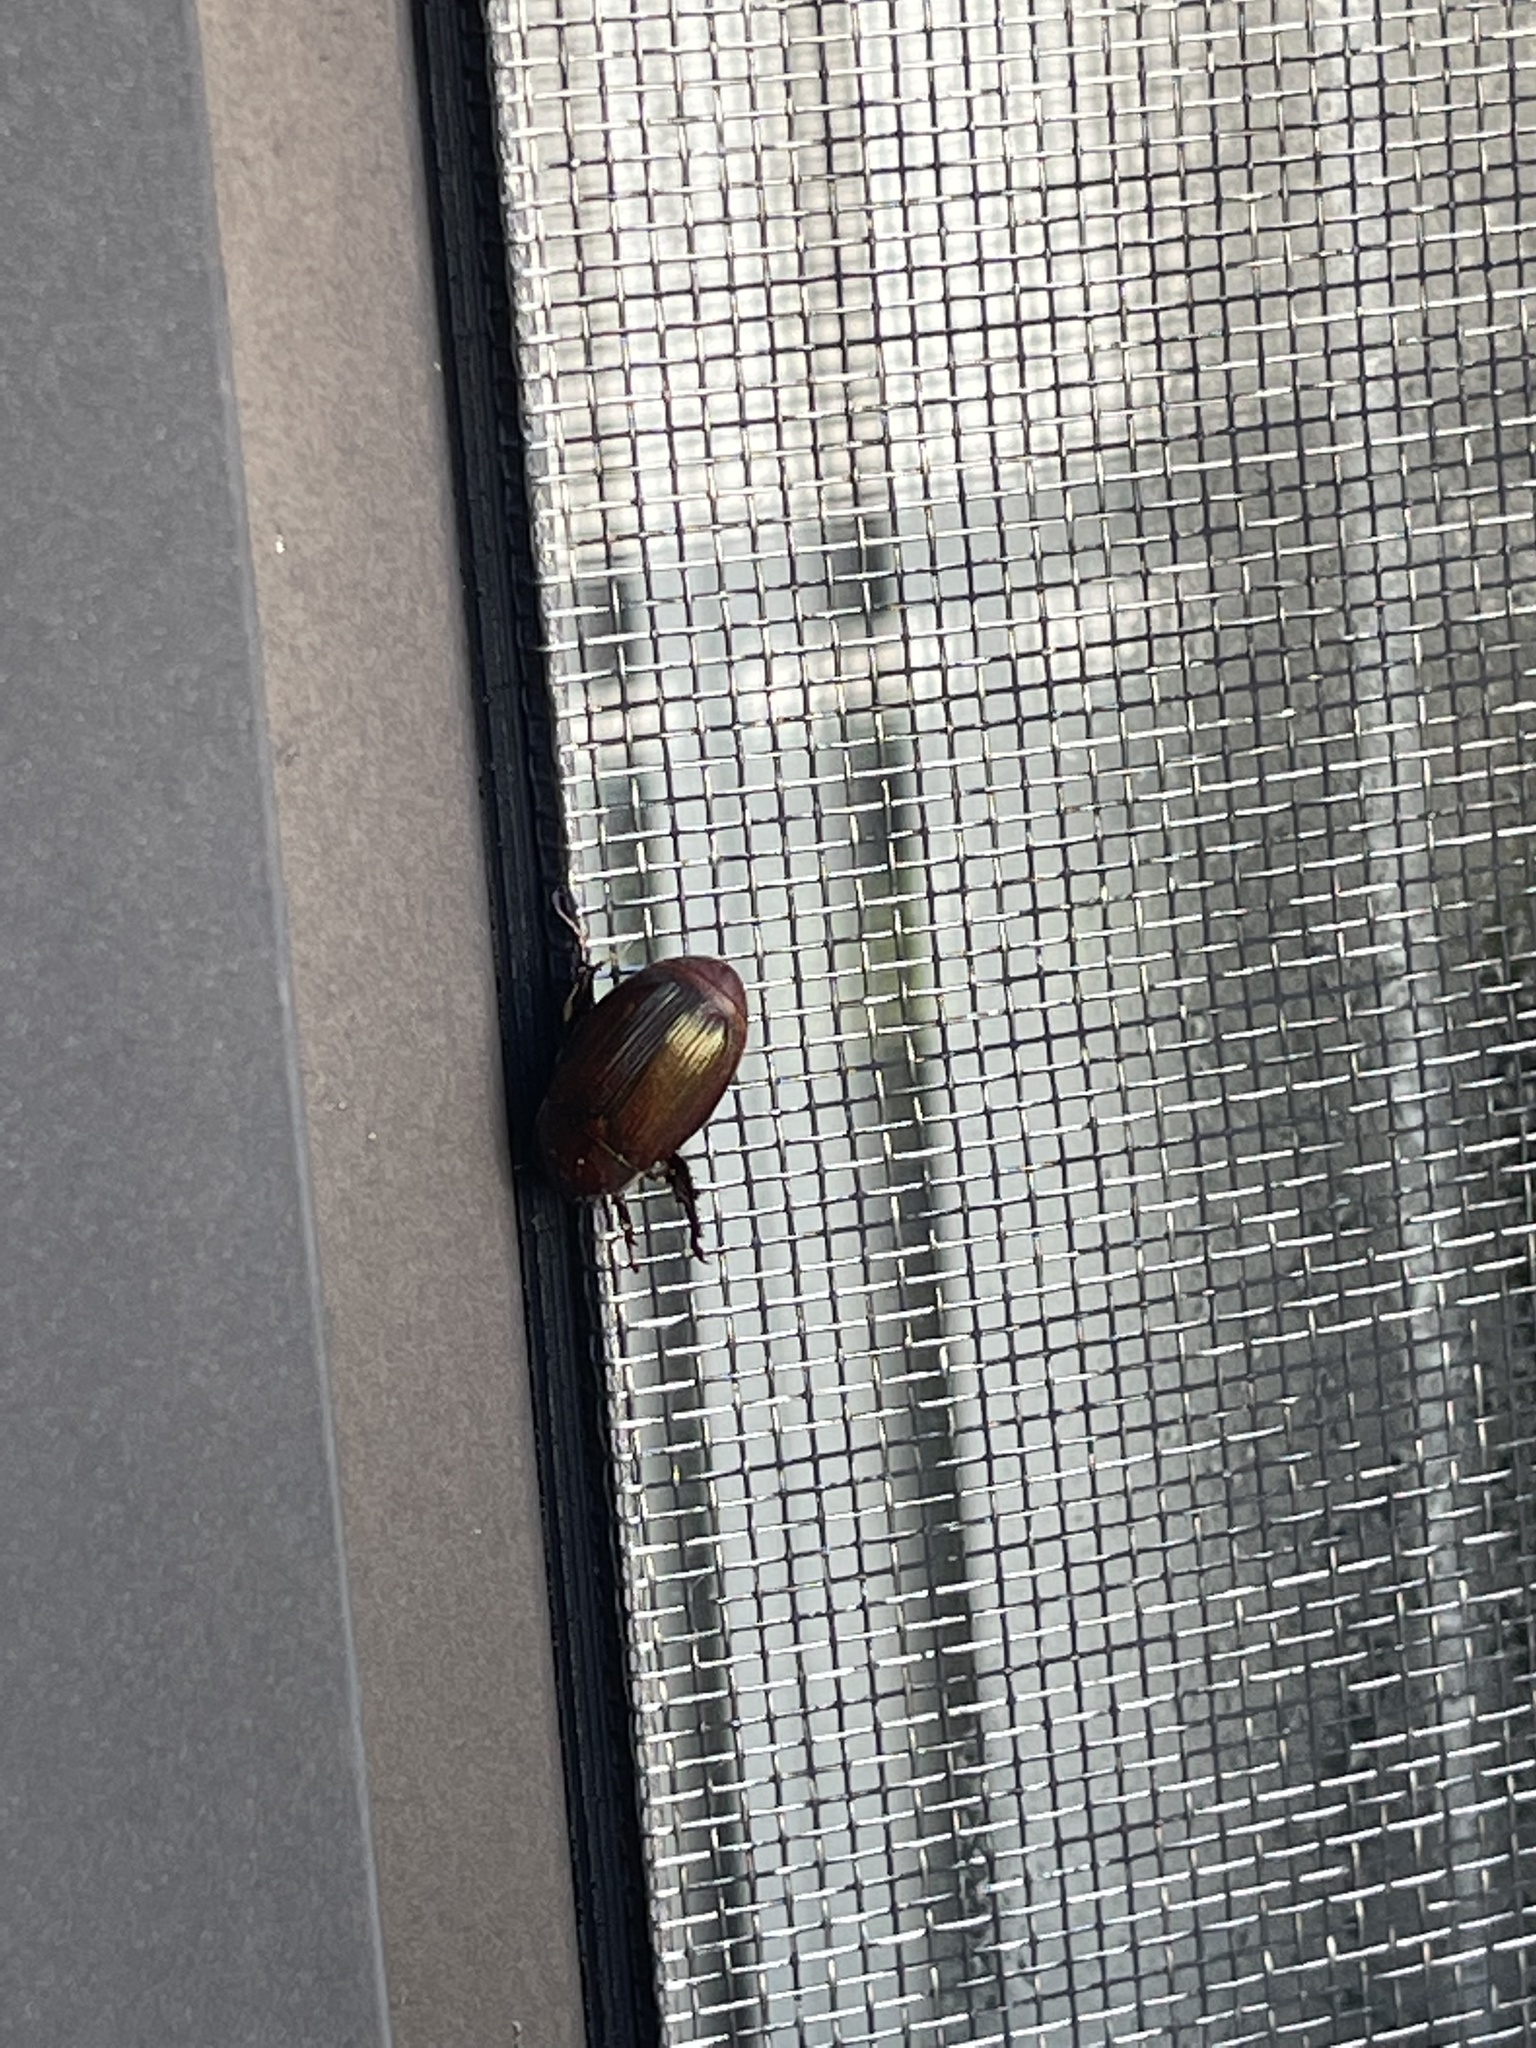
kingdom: Animalia
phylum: Arthropoda
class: Insecta
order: Coleoptera
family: Scarabaeidae
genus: Callistethus
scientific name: Callistethus marginatus
